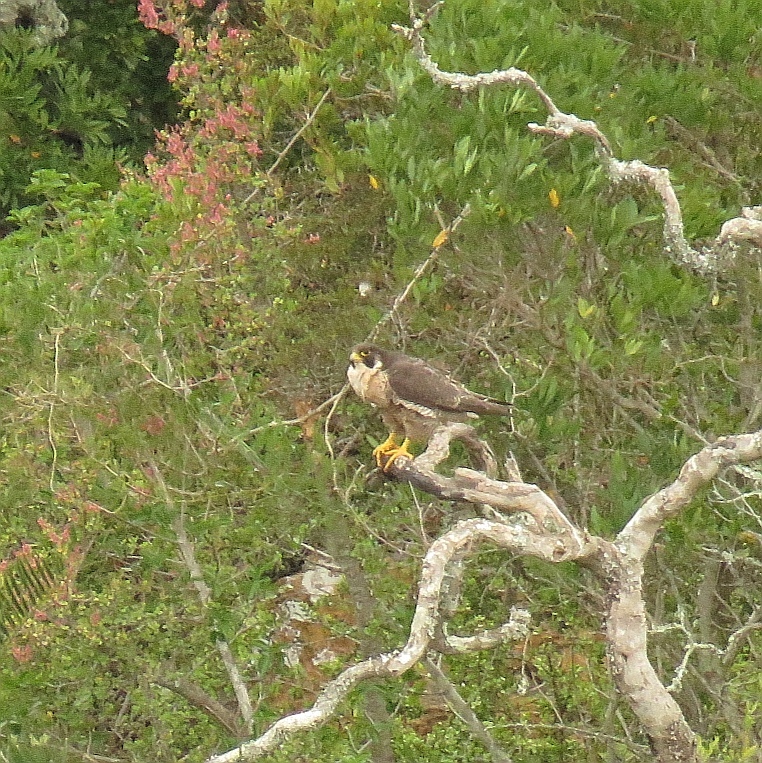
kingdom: Animalia
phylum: Chordata
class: Aves
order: Falconiformes
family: Falconidae
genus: Falco
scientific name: Falco peregrinus
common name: Peregrine falcon
